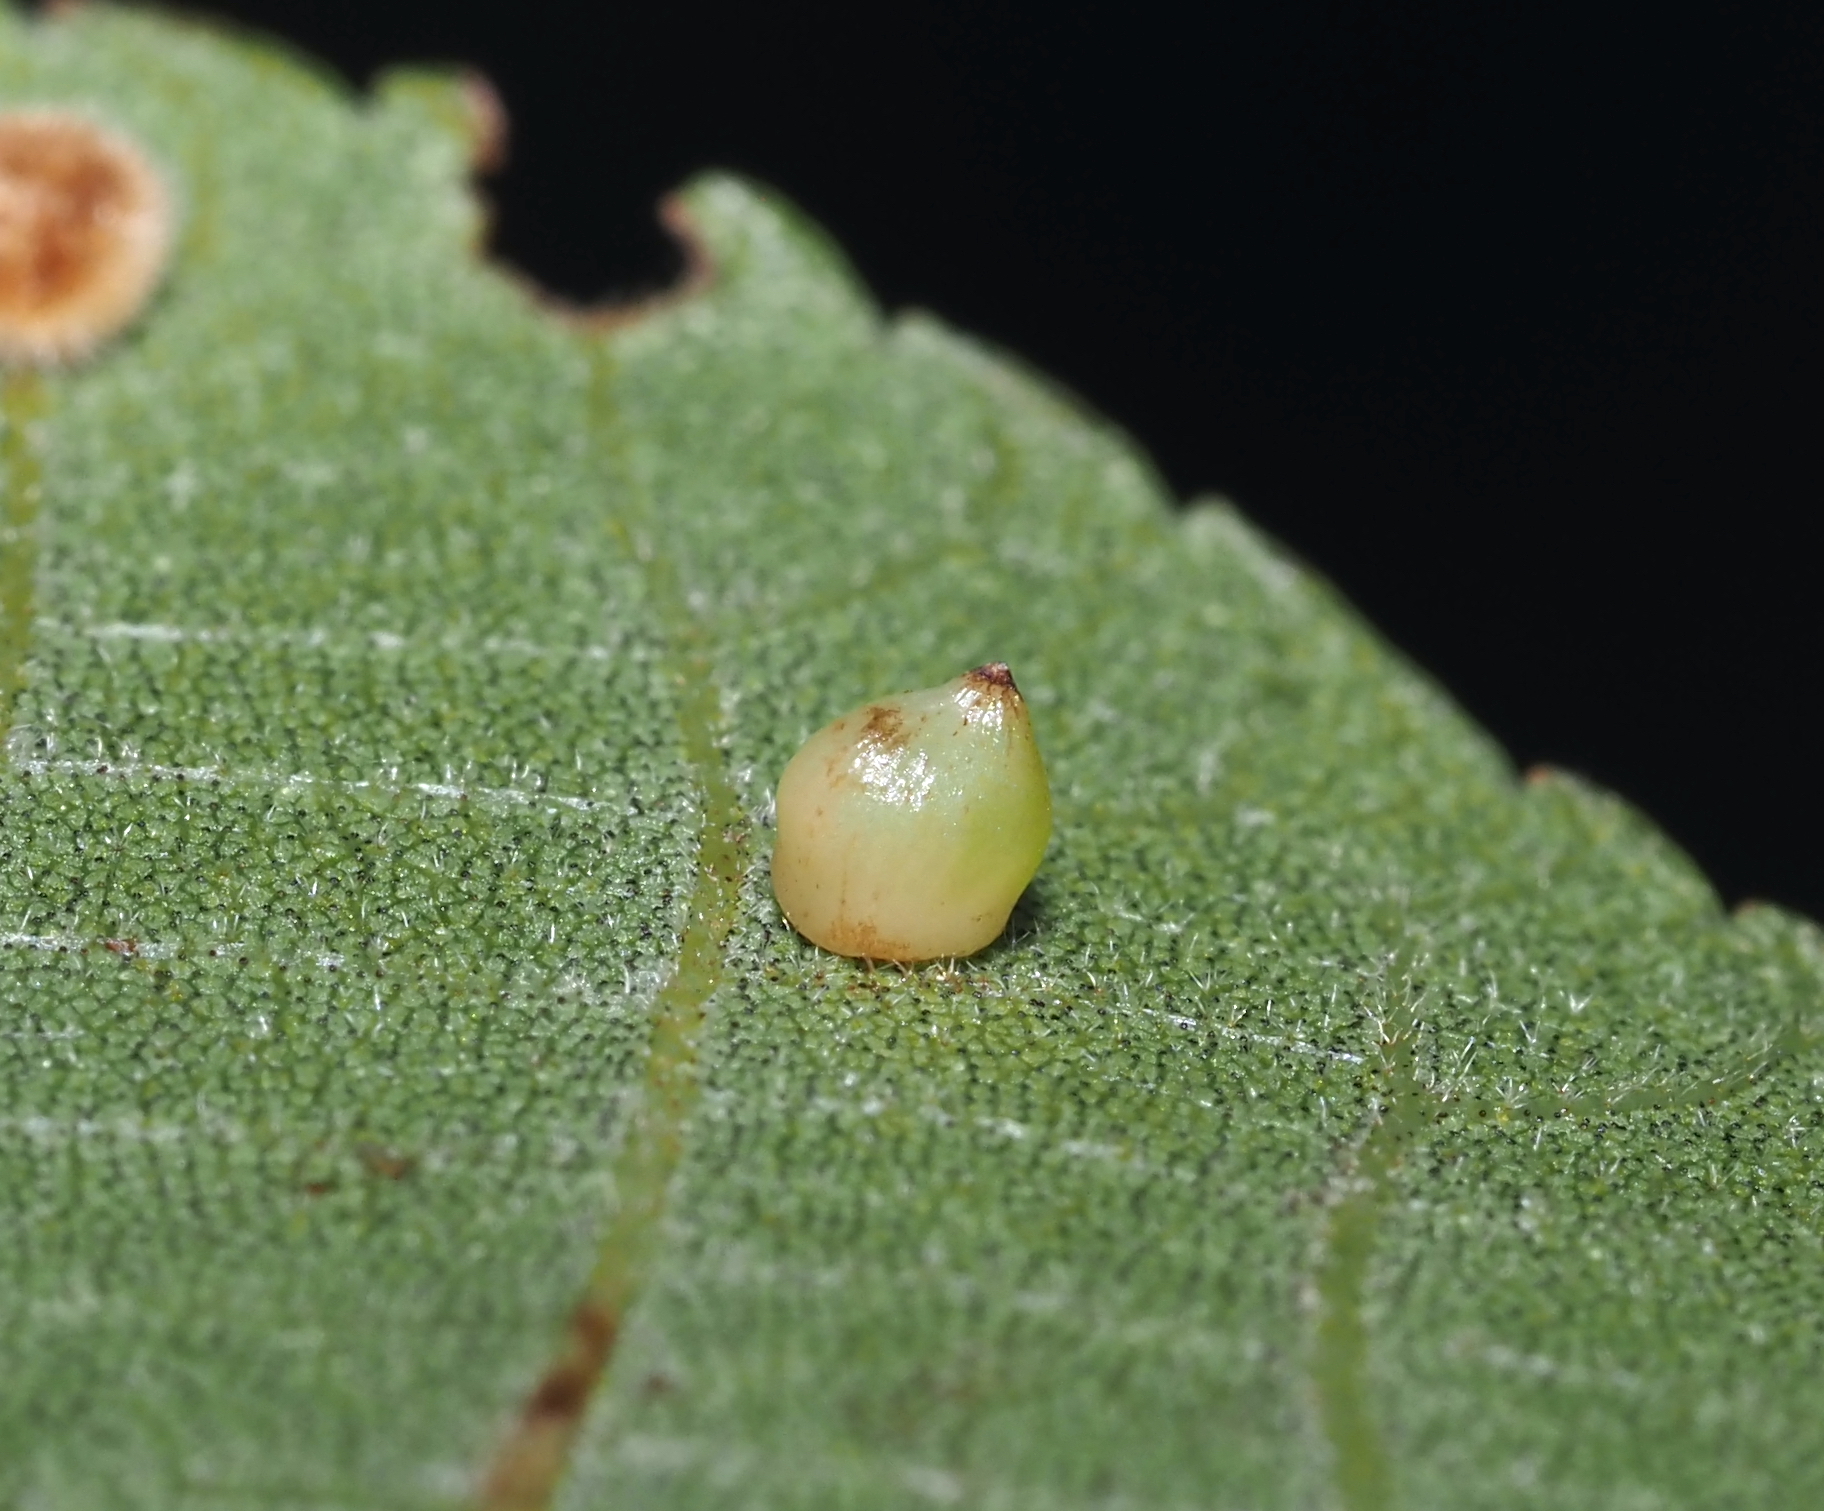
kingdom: Animalia
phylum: Arthropoda
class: Insecta
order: Diptera
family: Cecidomyiidae
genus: Caryomyia
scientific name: Caryomyia shmoo
